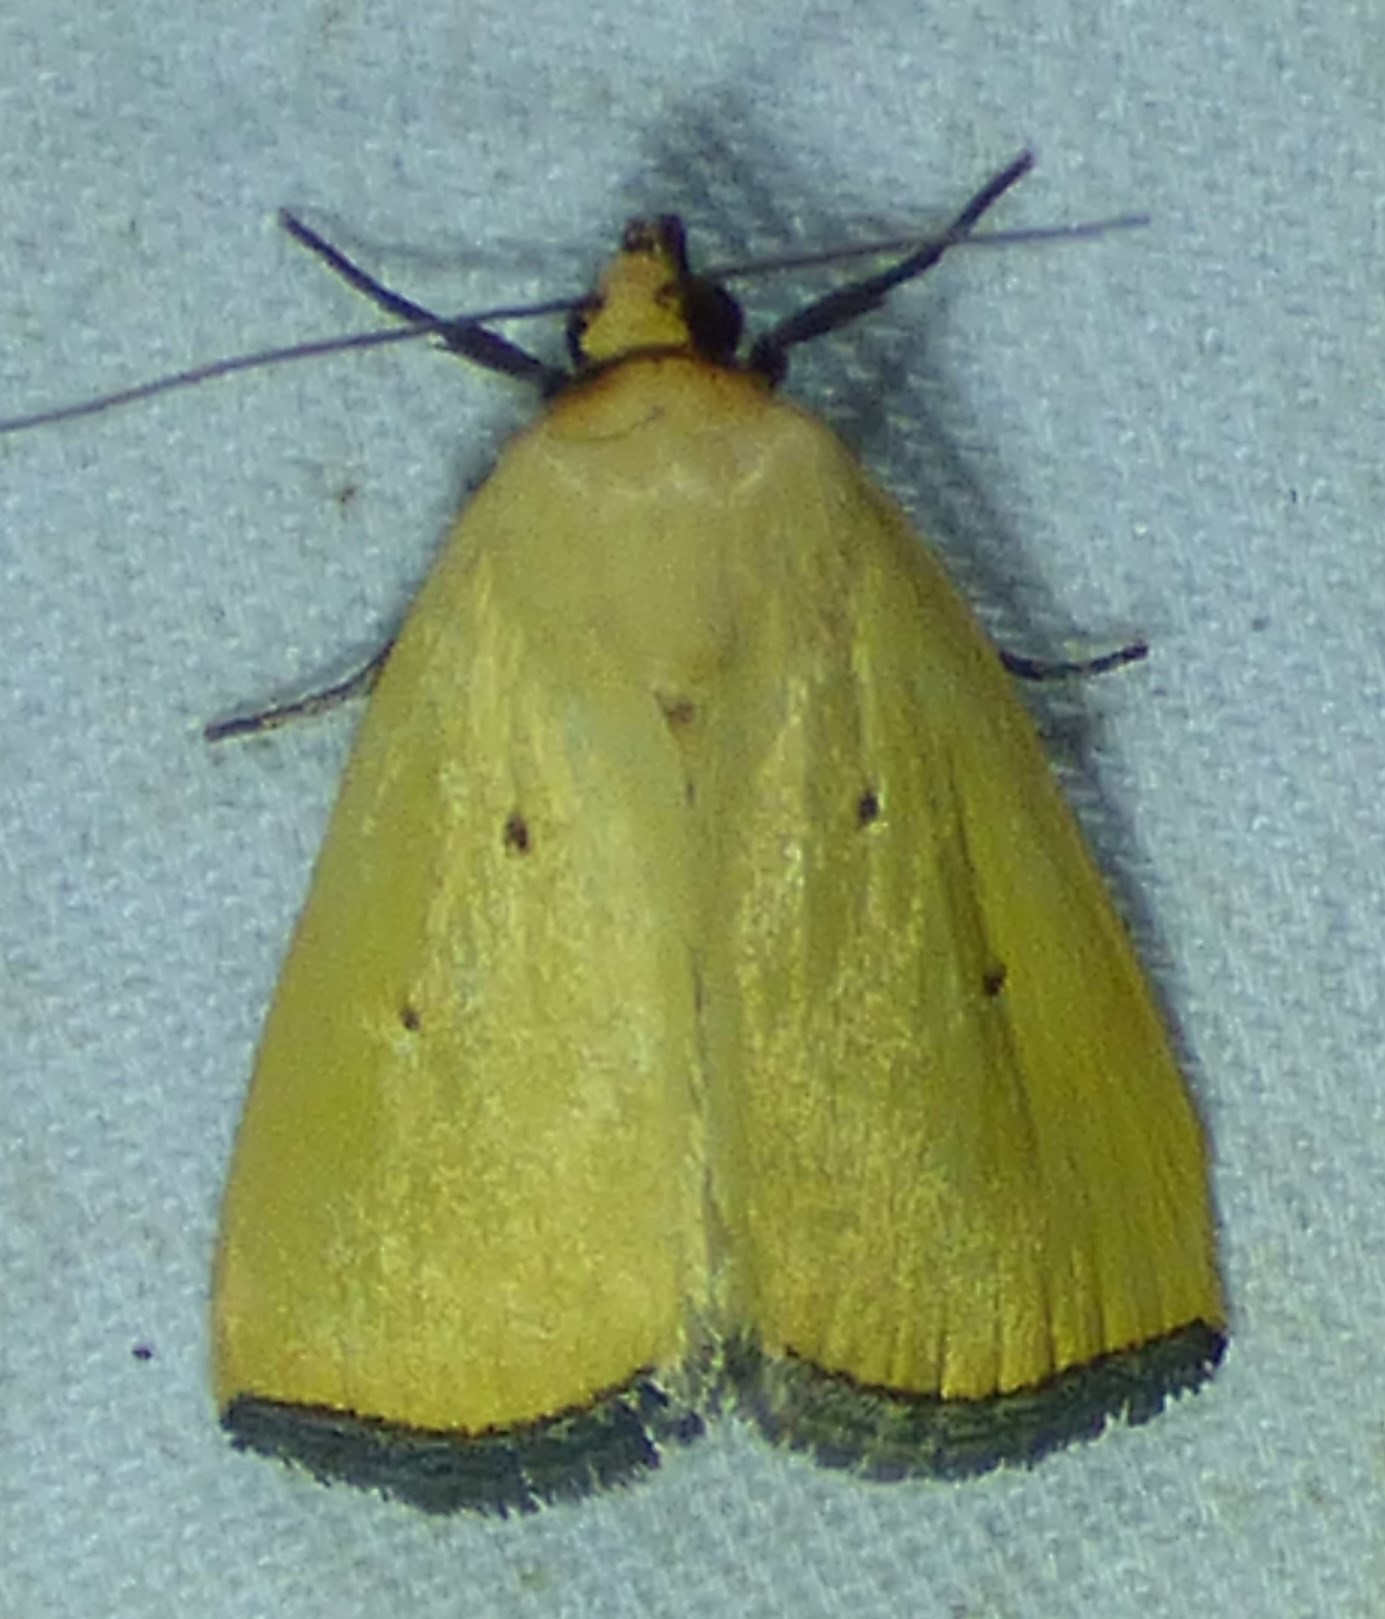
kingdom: Animalia
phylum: Arthropoda
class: Insecta
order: Lepidoptera
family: Noctuidae
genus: Marimatha
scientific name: Marimatha nigrofimbria
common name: Black-bordered lemon moth
